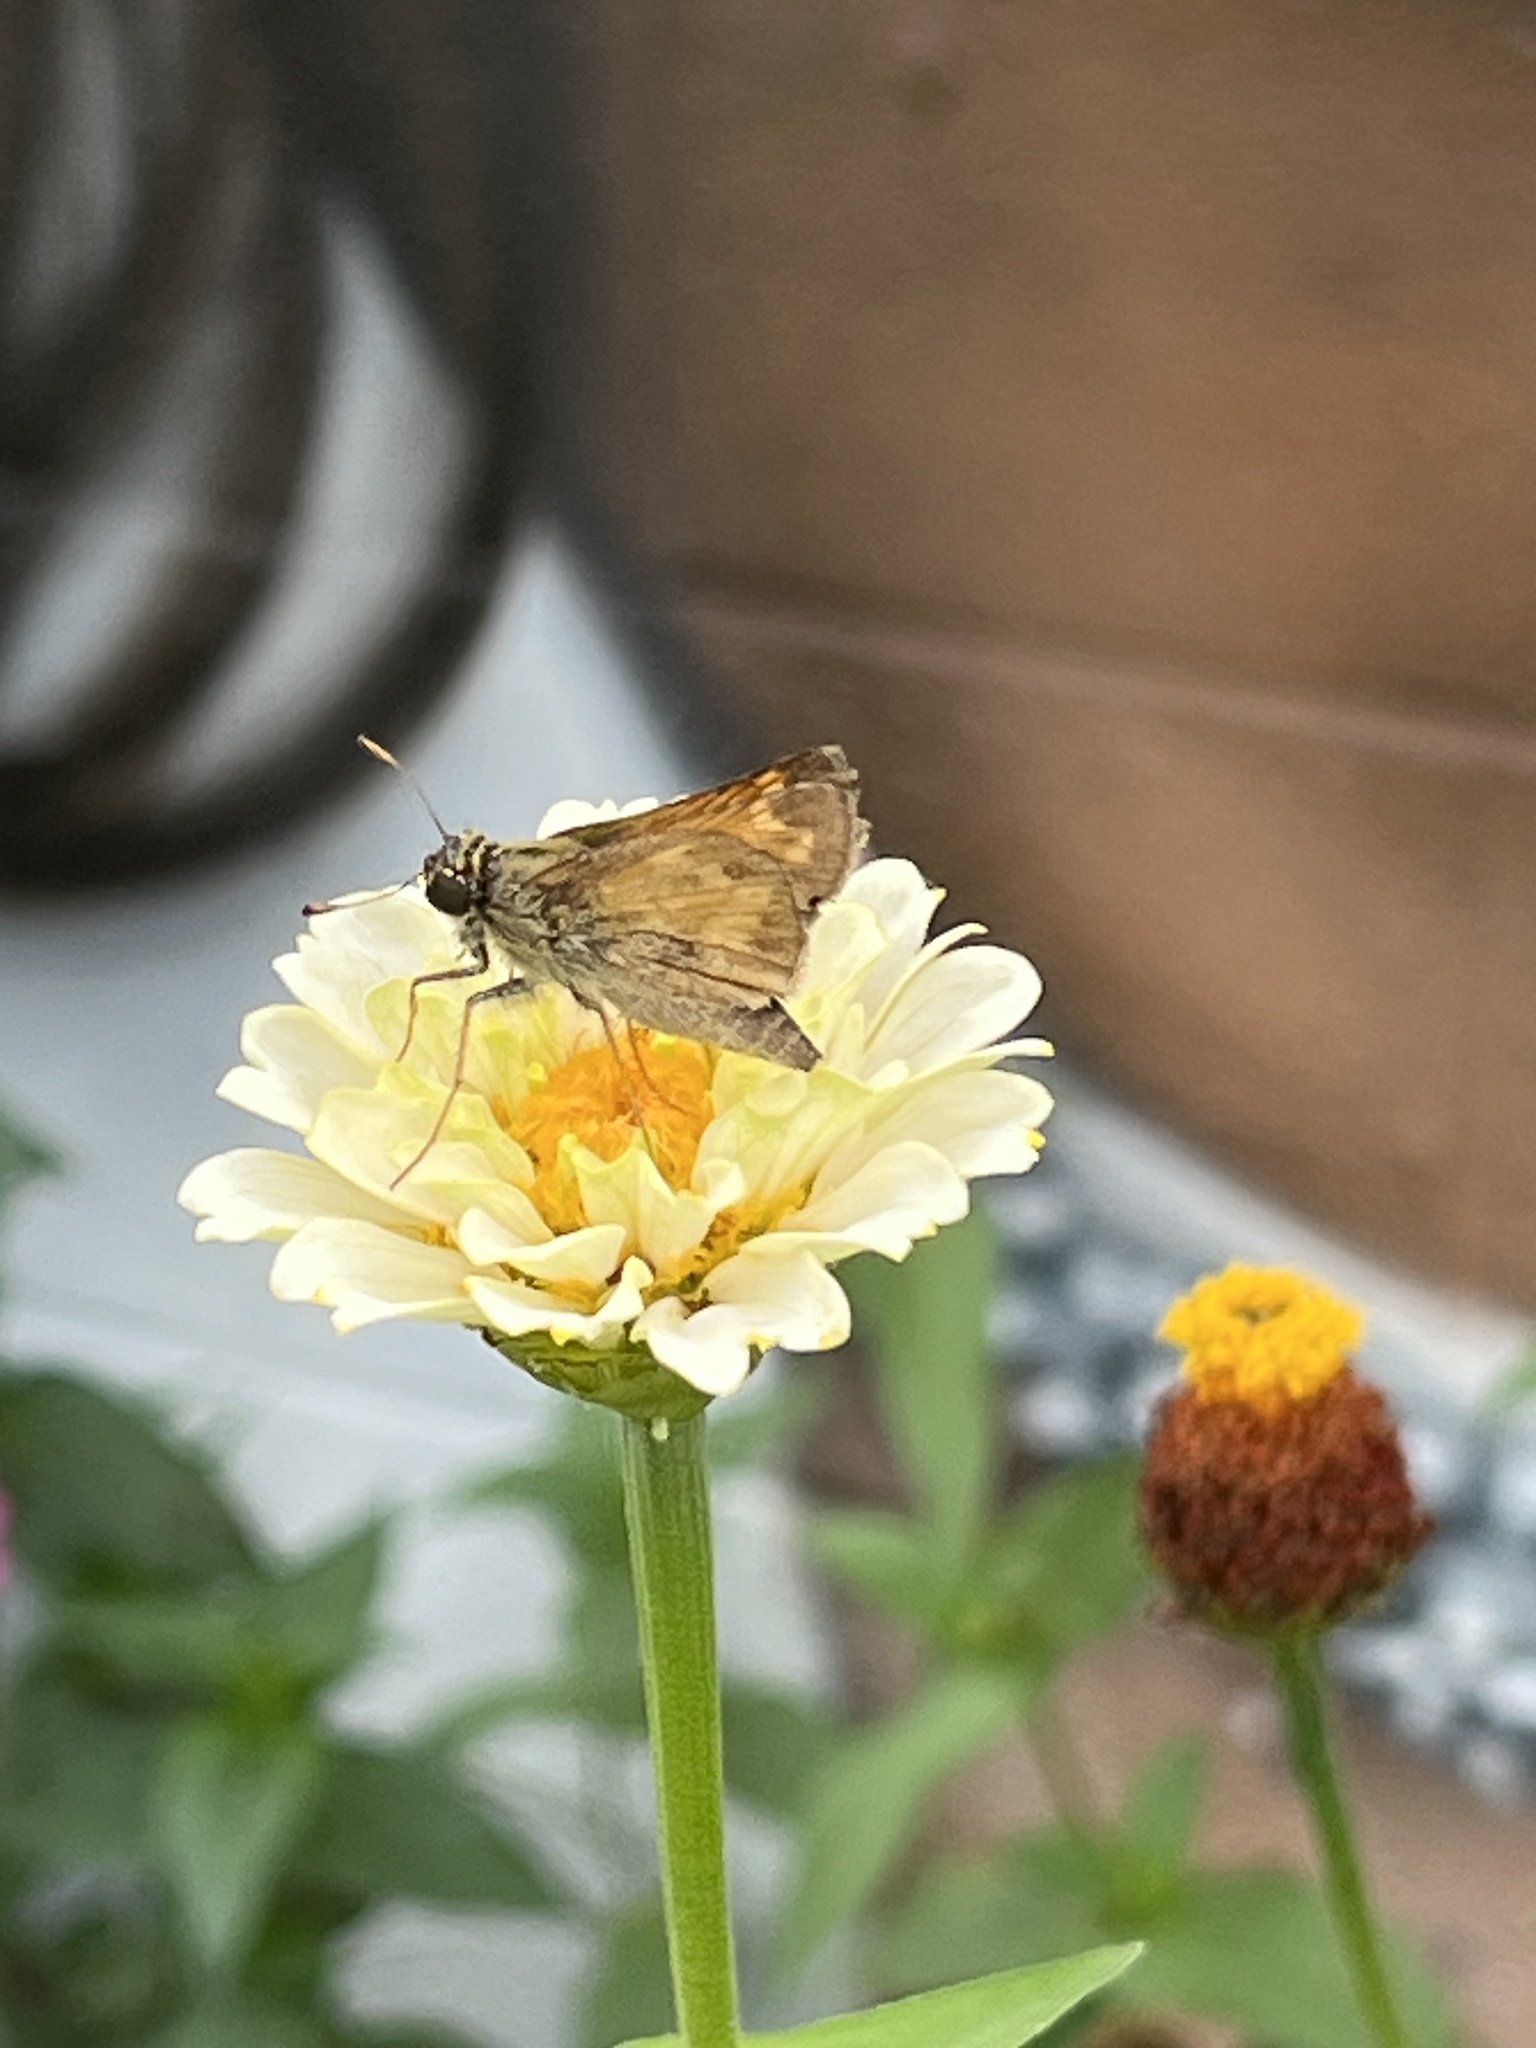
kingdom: Animalia
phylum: Arthropoda
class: Insecta
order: Lepidoptera
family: Hesperiidae
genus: Atalopedes
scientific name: Atalopedes
